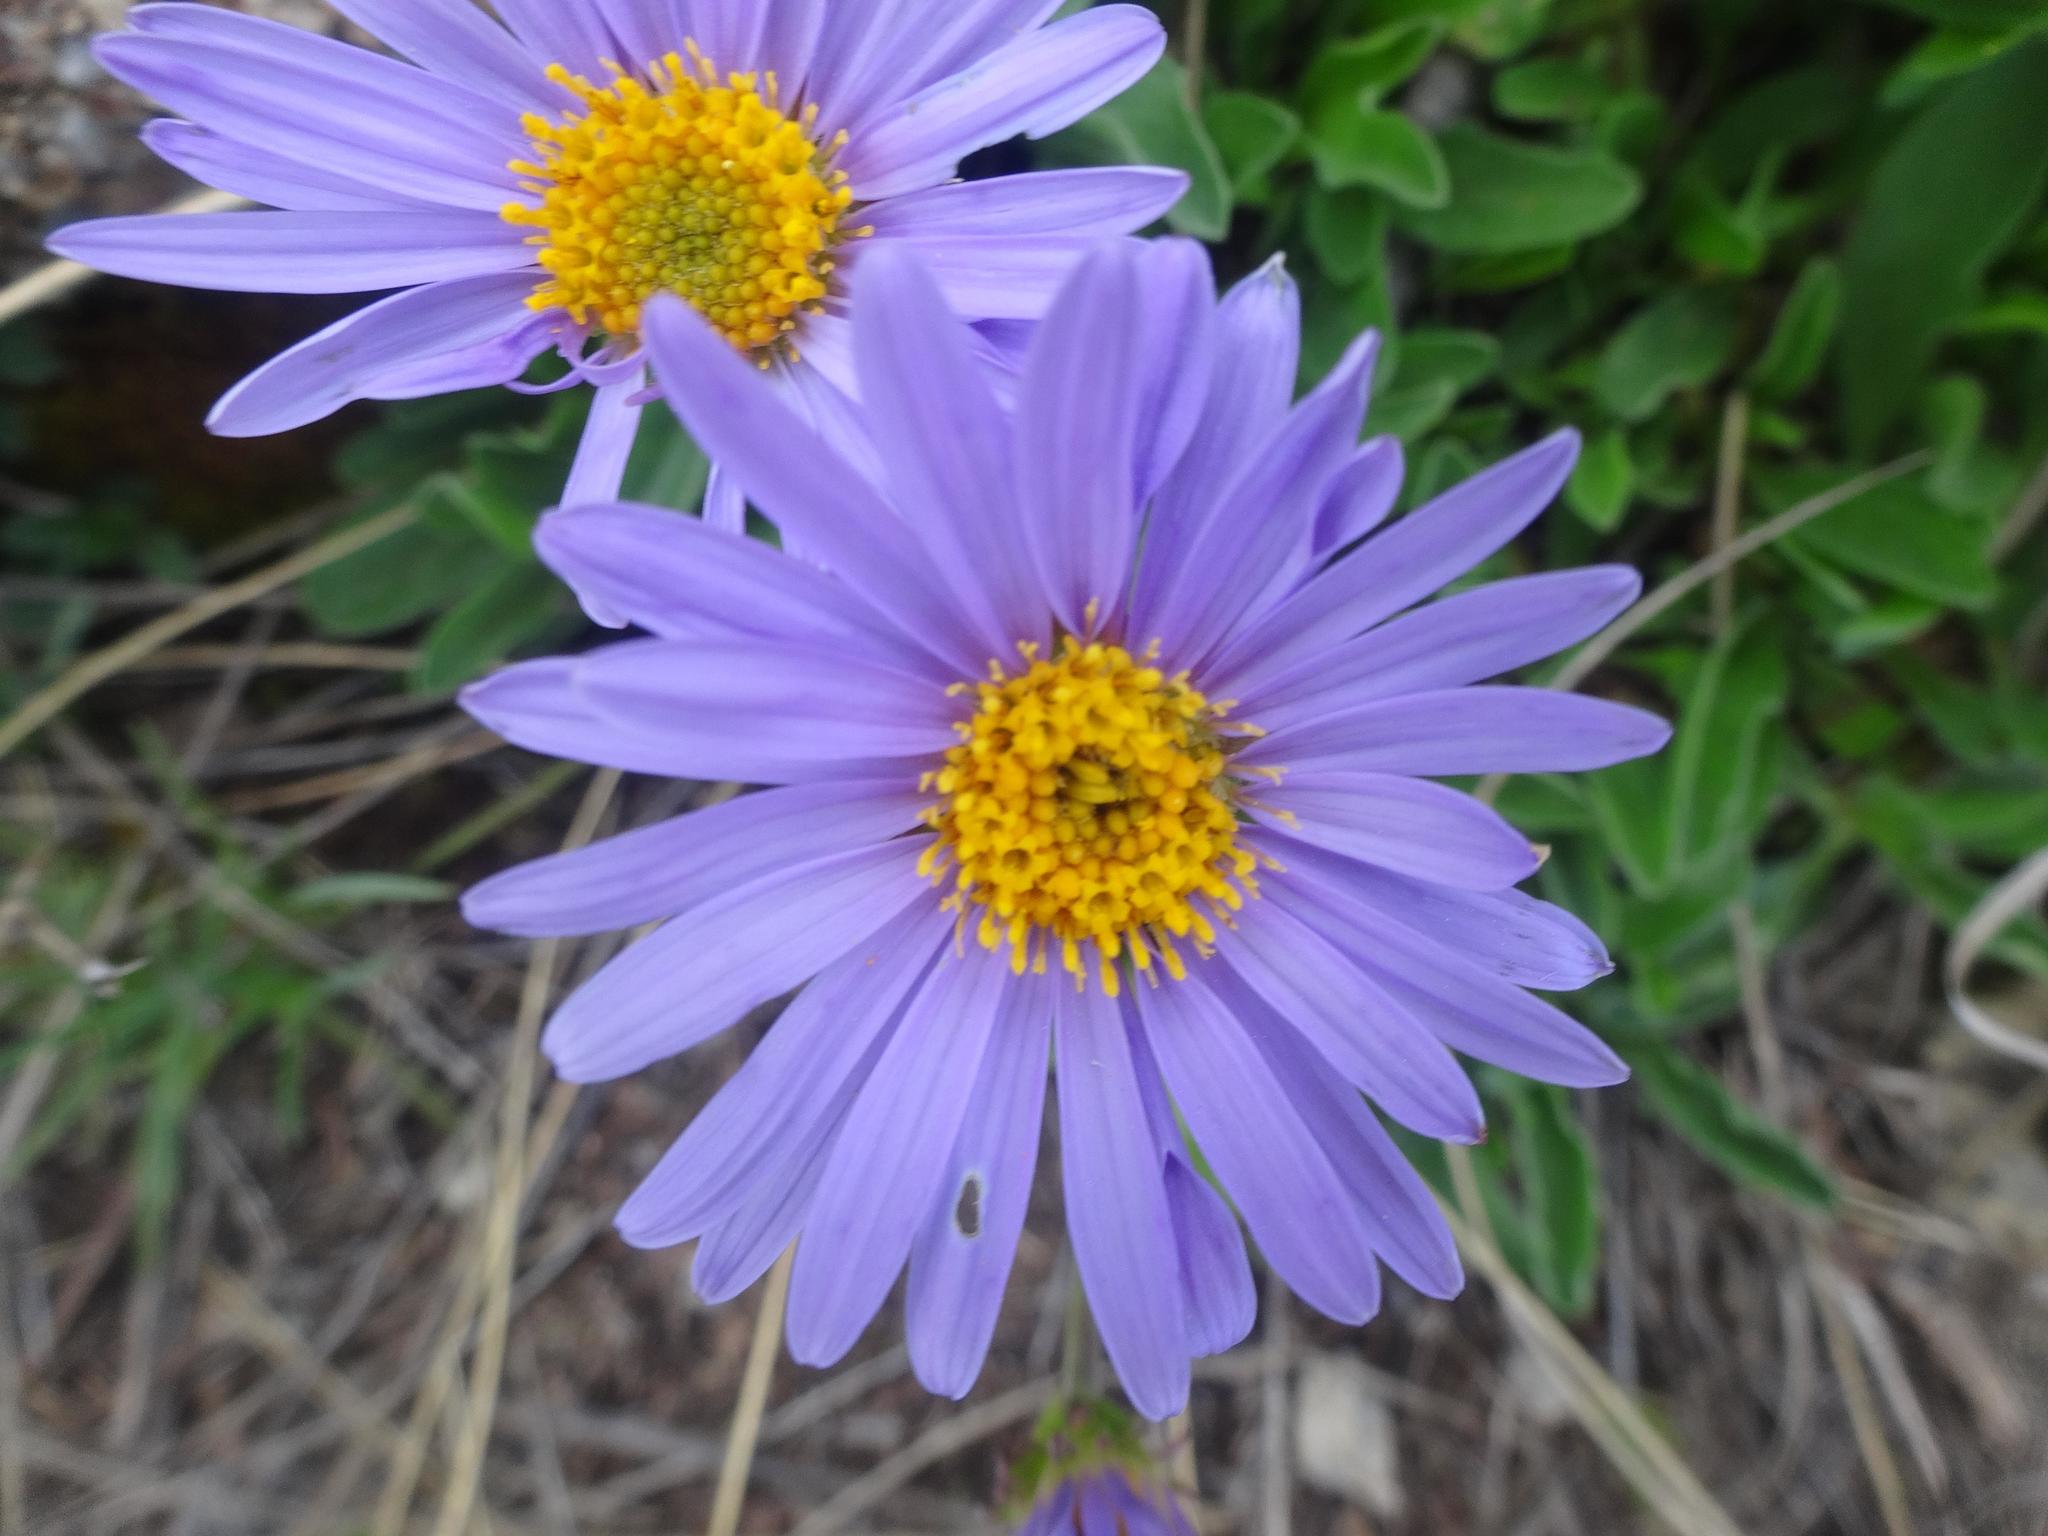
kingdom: Plantae
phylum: Tracheophyta
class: Magnoliopsida
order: Asterales
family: Asteraceae
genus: Aster
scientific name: Aster alpinus
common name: Alpine aster
